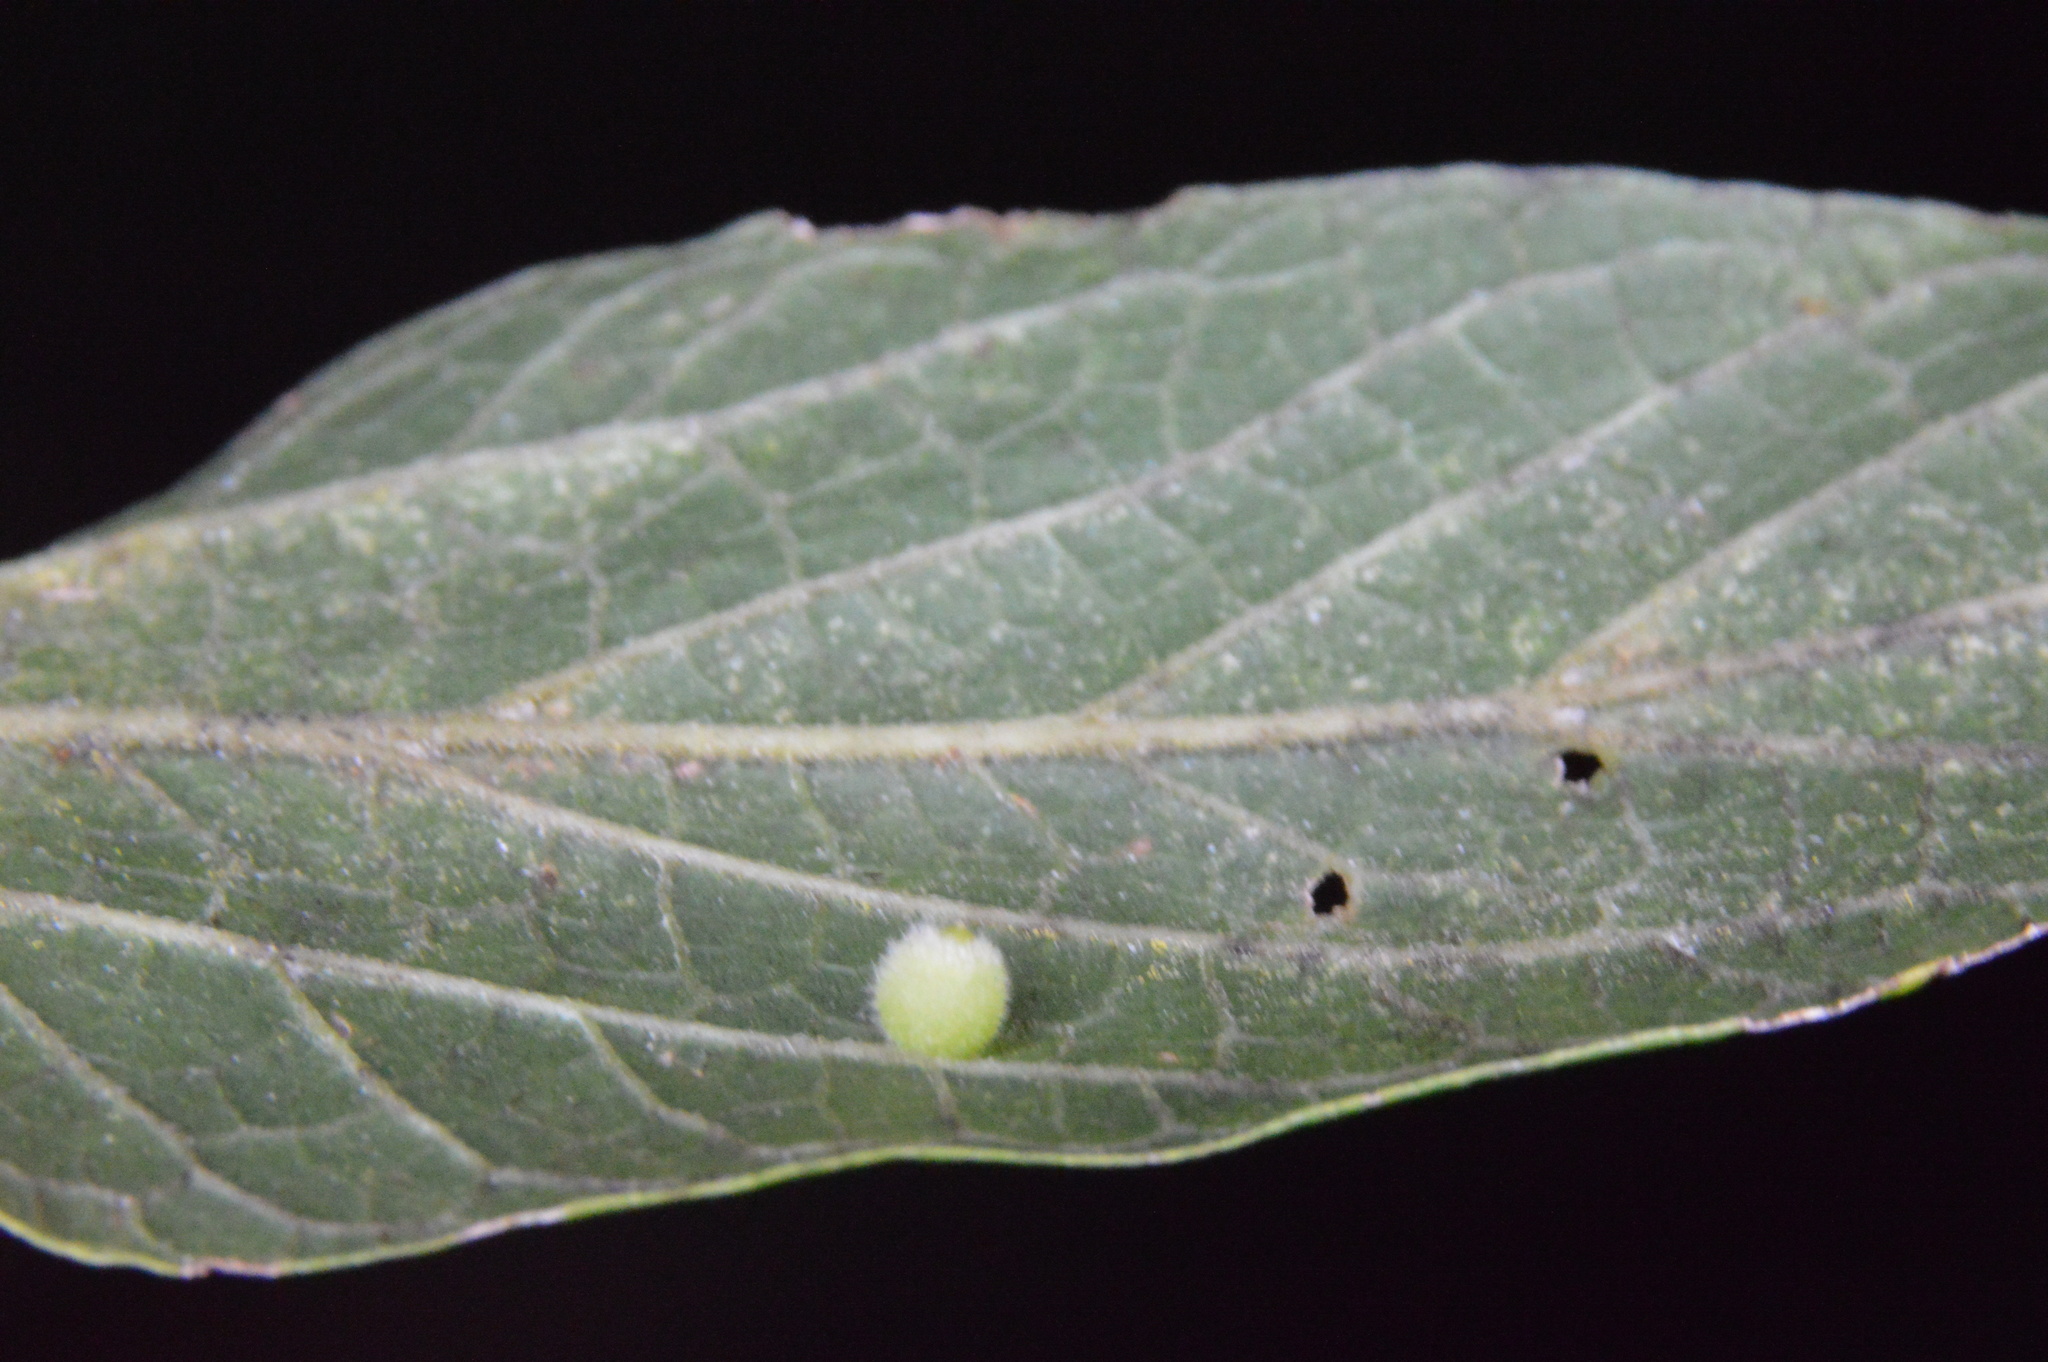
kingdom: Animalia
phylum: Arthropoda
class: Insecta
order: Diptera
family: Cecidomyiidae
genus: Celticecis
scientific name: Celticecis globosa
